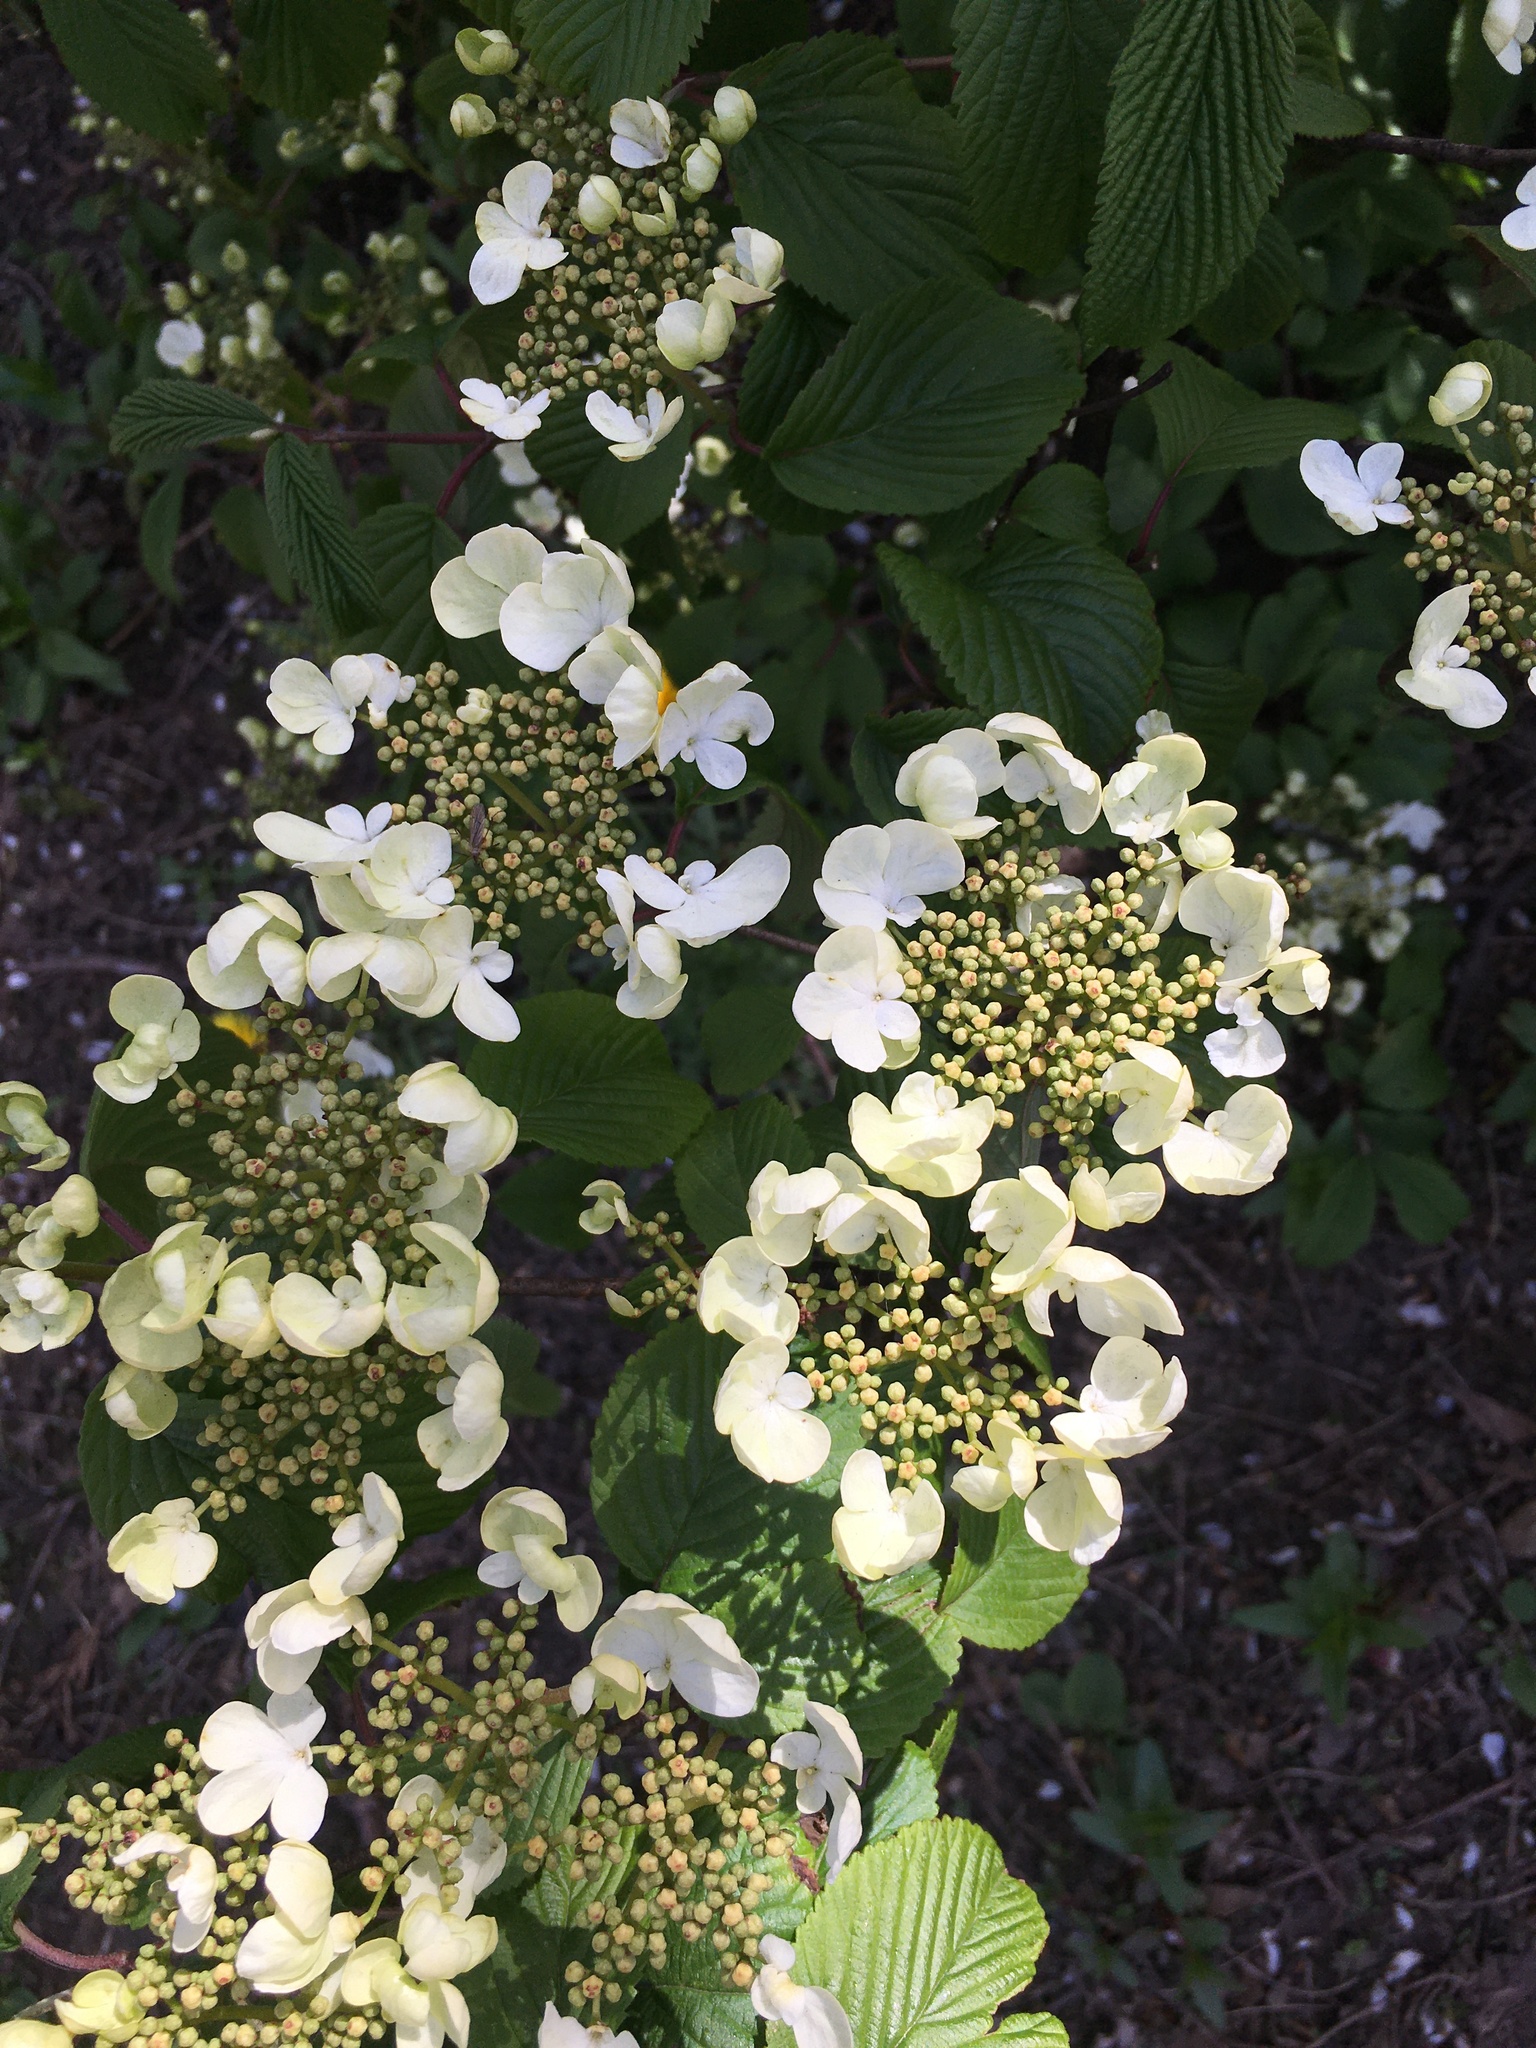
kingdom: Plantae
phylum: Tracheophyta
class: Magnoliopsida
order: Dipsacales
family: Viburnaceae
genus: Viburnum
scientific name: Viburnum plicatum
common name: Japanese snowball
